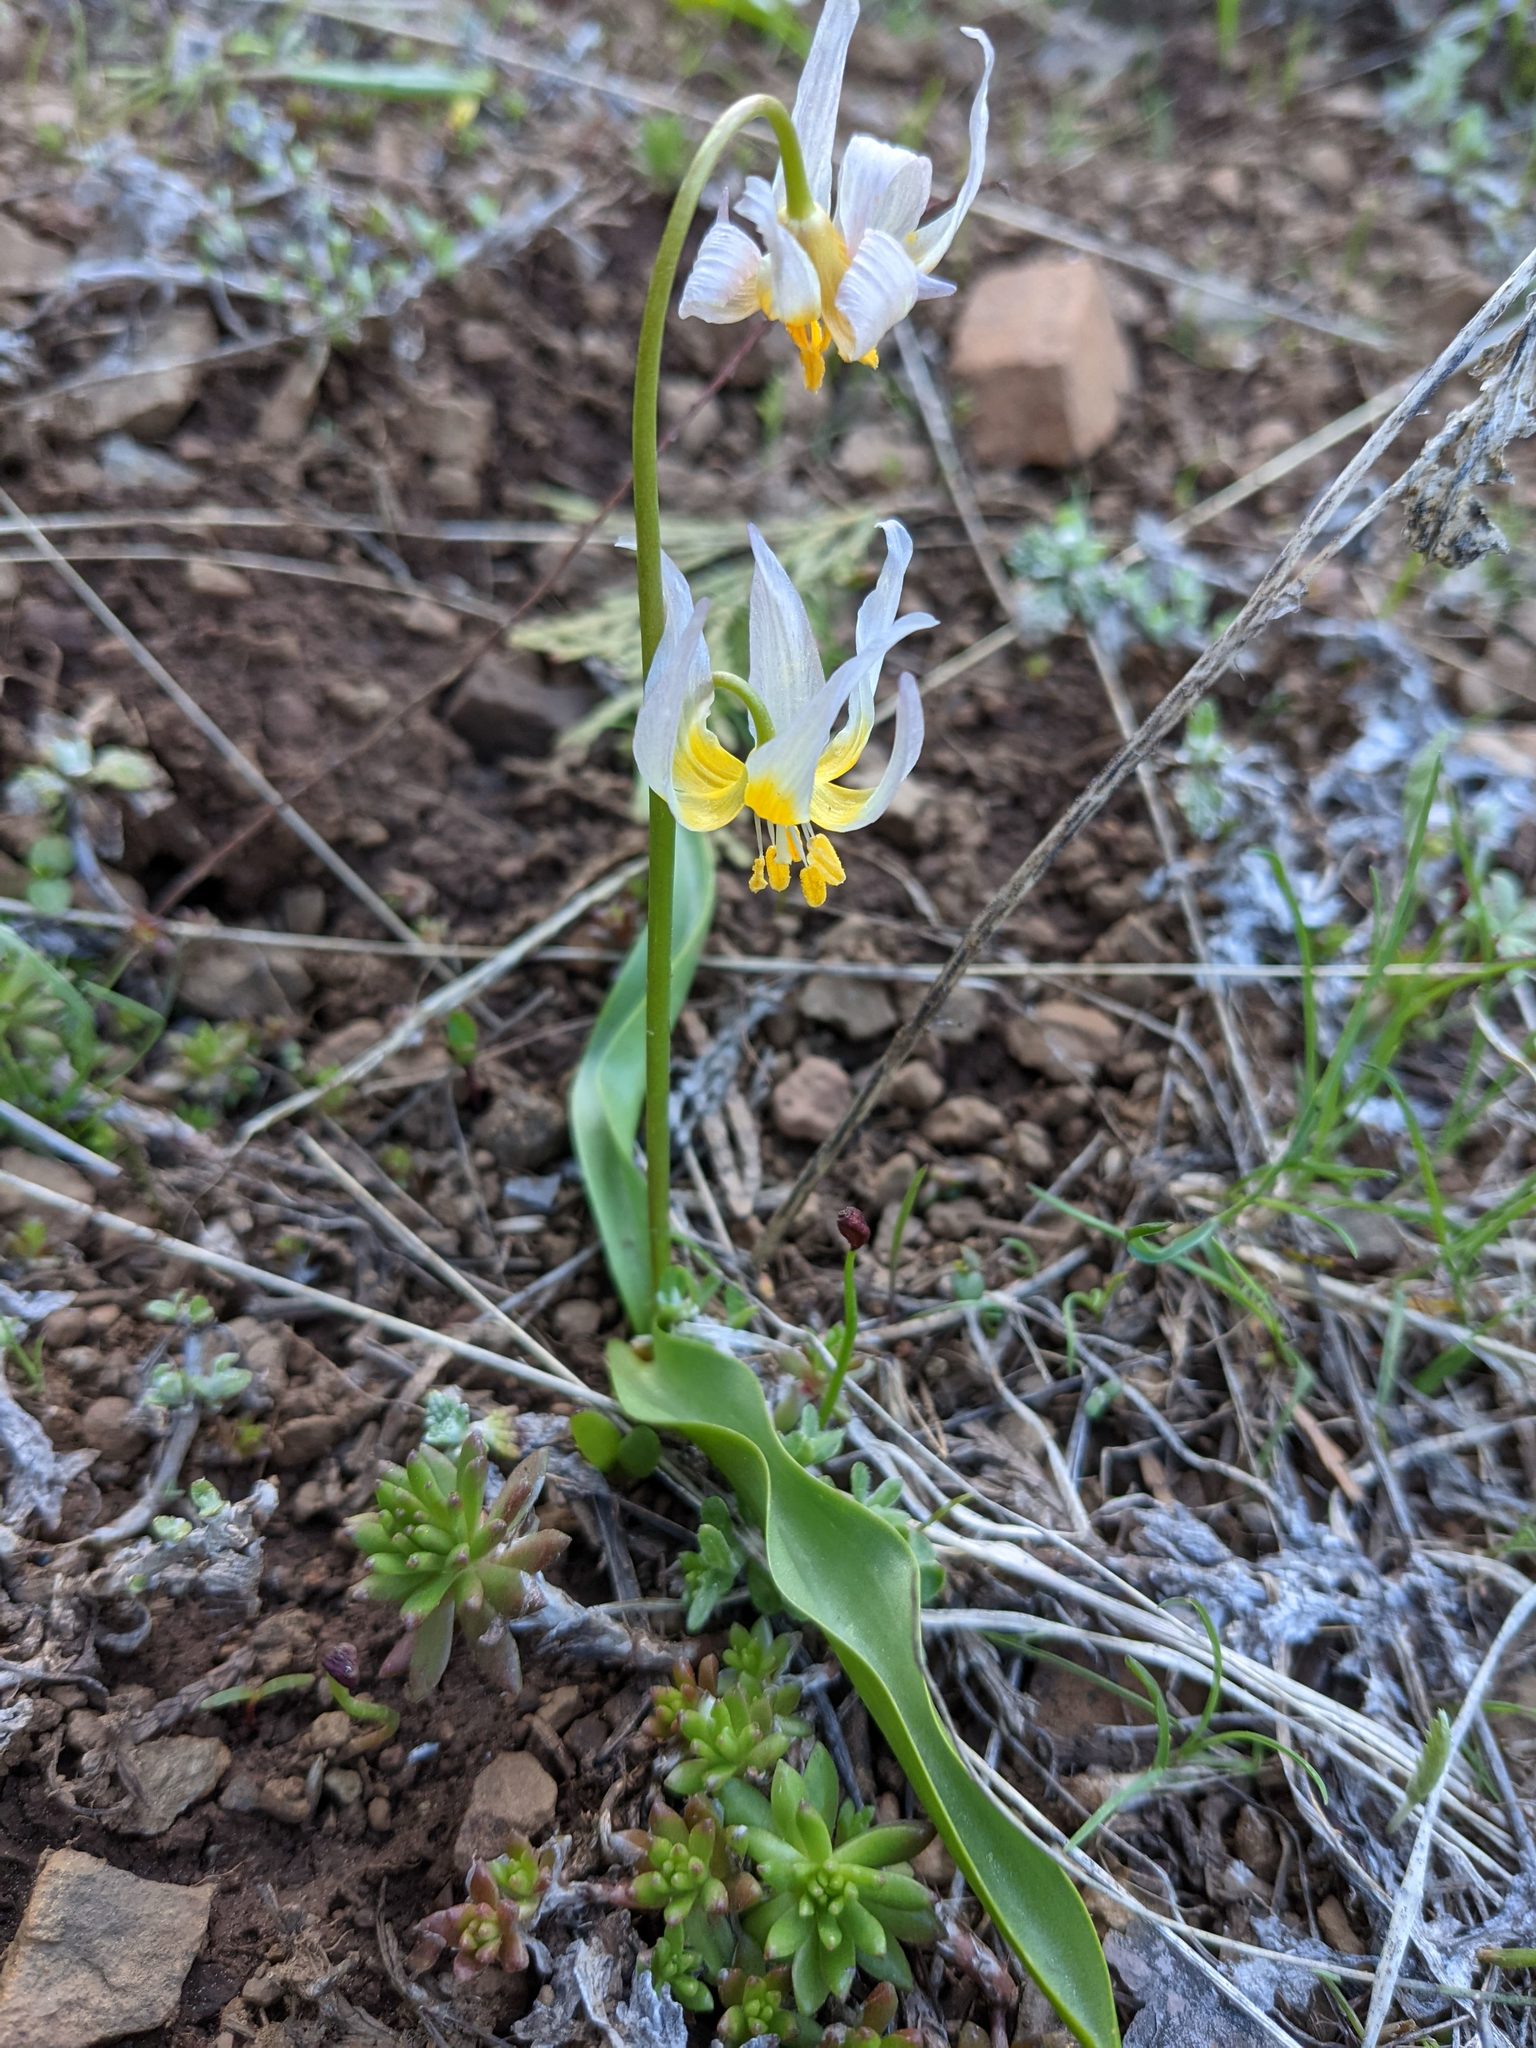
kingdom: Plantae
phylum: Tracheophyta
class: Liliopsida
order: Liliales
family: Liliaceae
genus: Erythronium
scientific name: Erythronium klamathense
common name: Klamath fawn-lily
